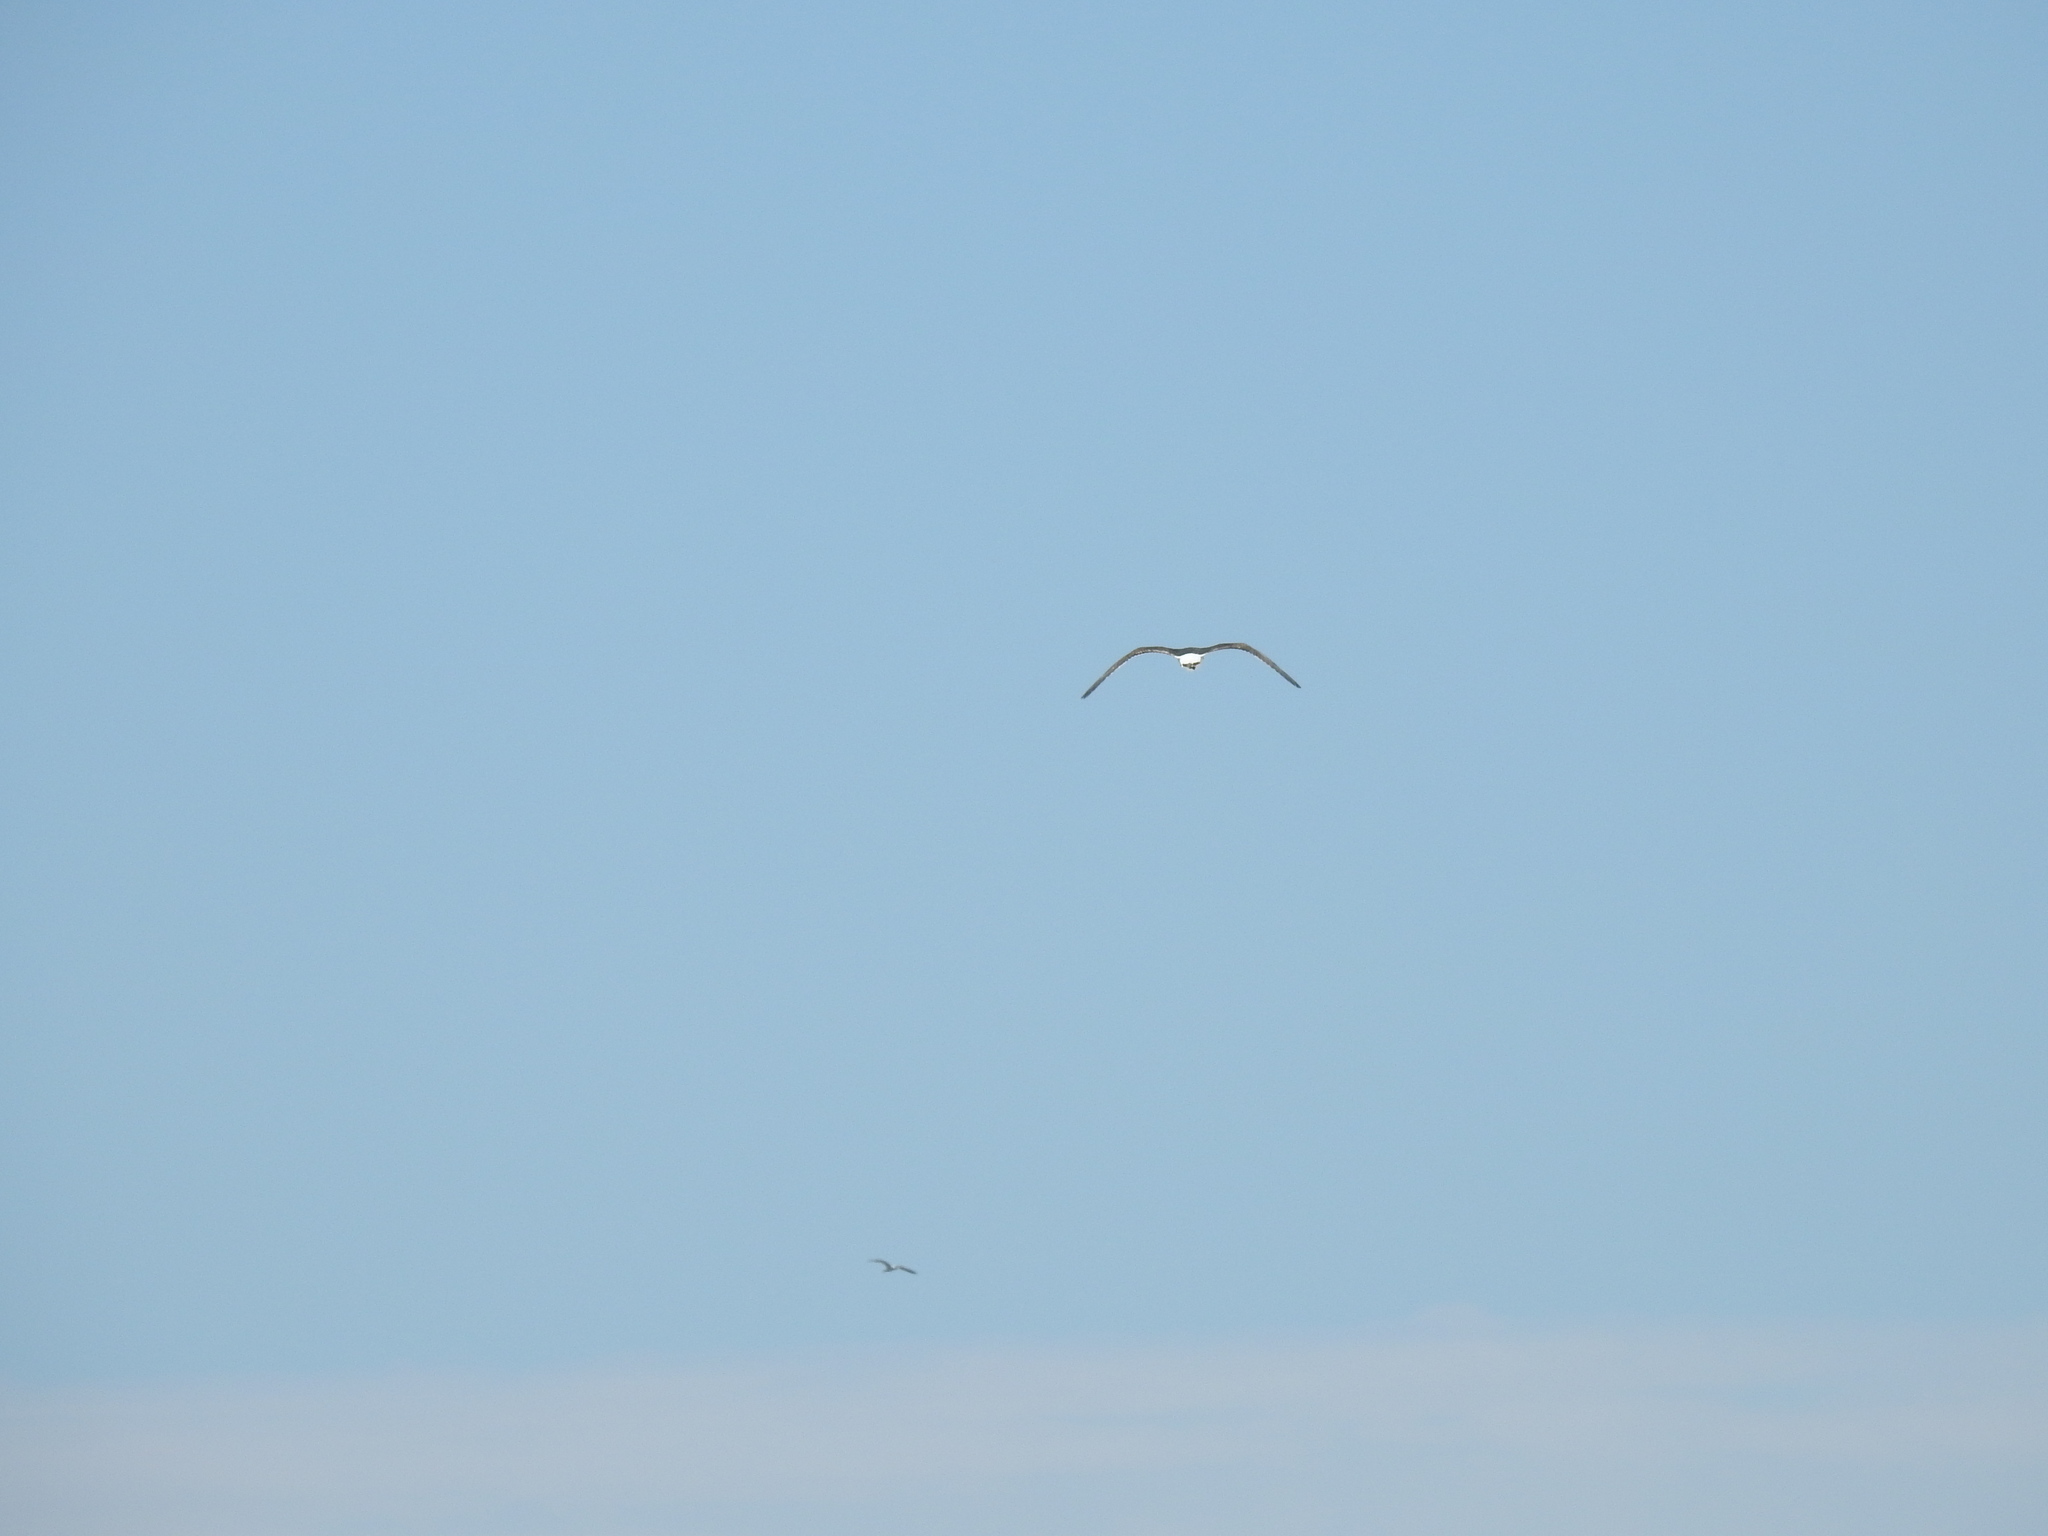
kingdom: Animalia
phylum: Chordata
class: Aves
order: Charadriiformes
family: Laridae
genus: Larus
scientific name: Larus dominicanus
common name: Kelp gull
